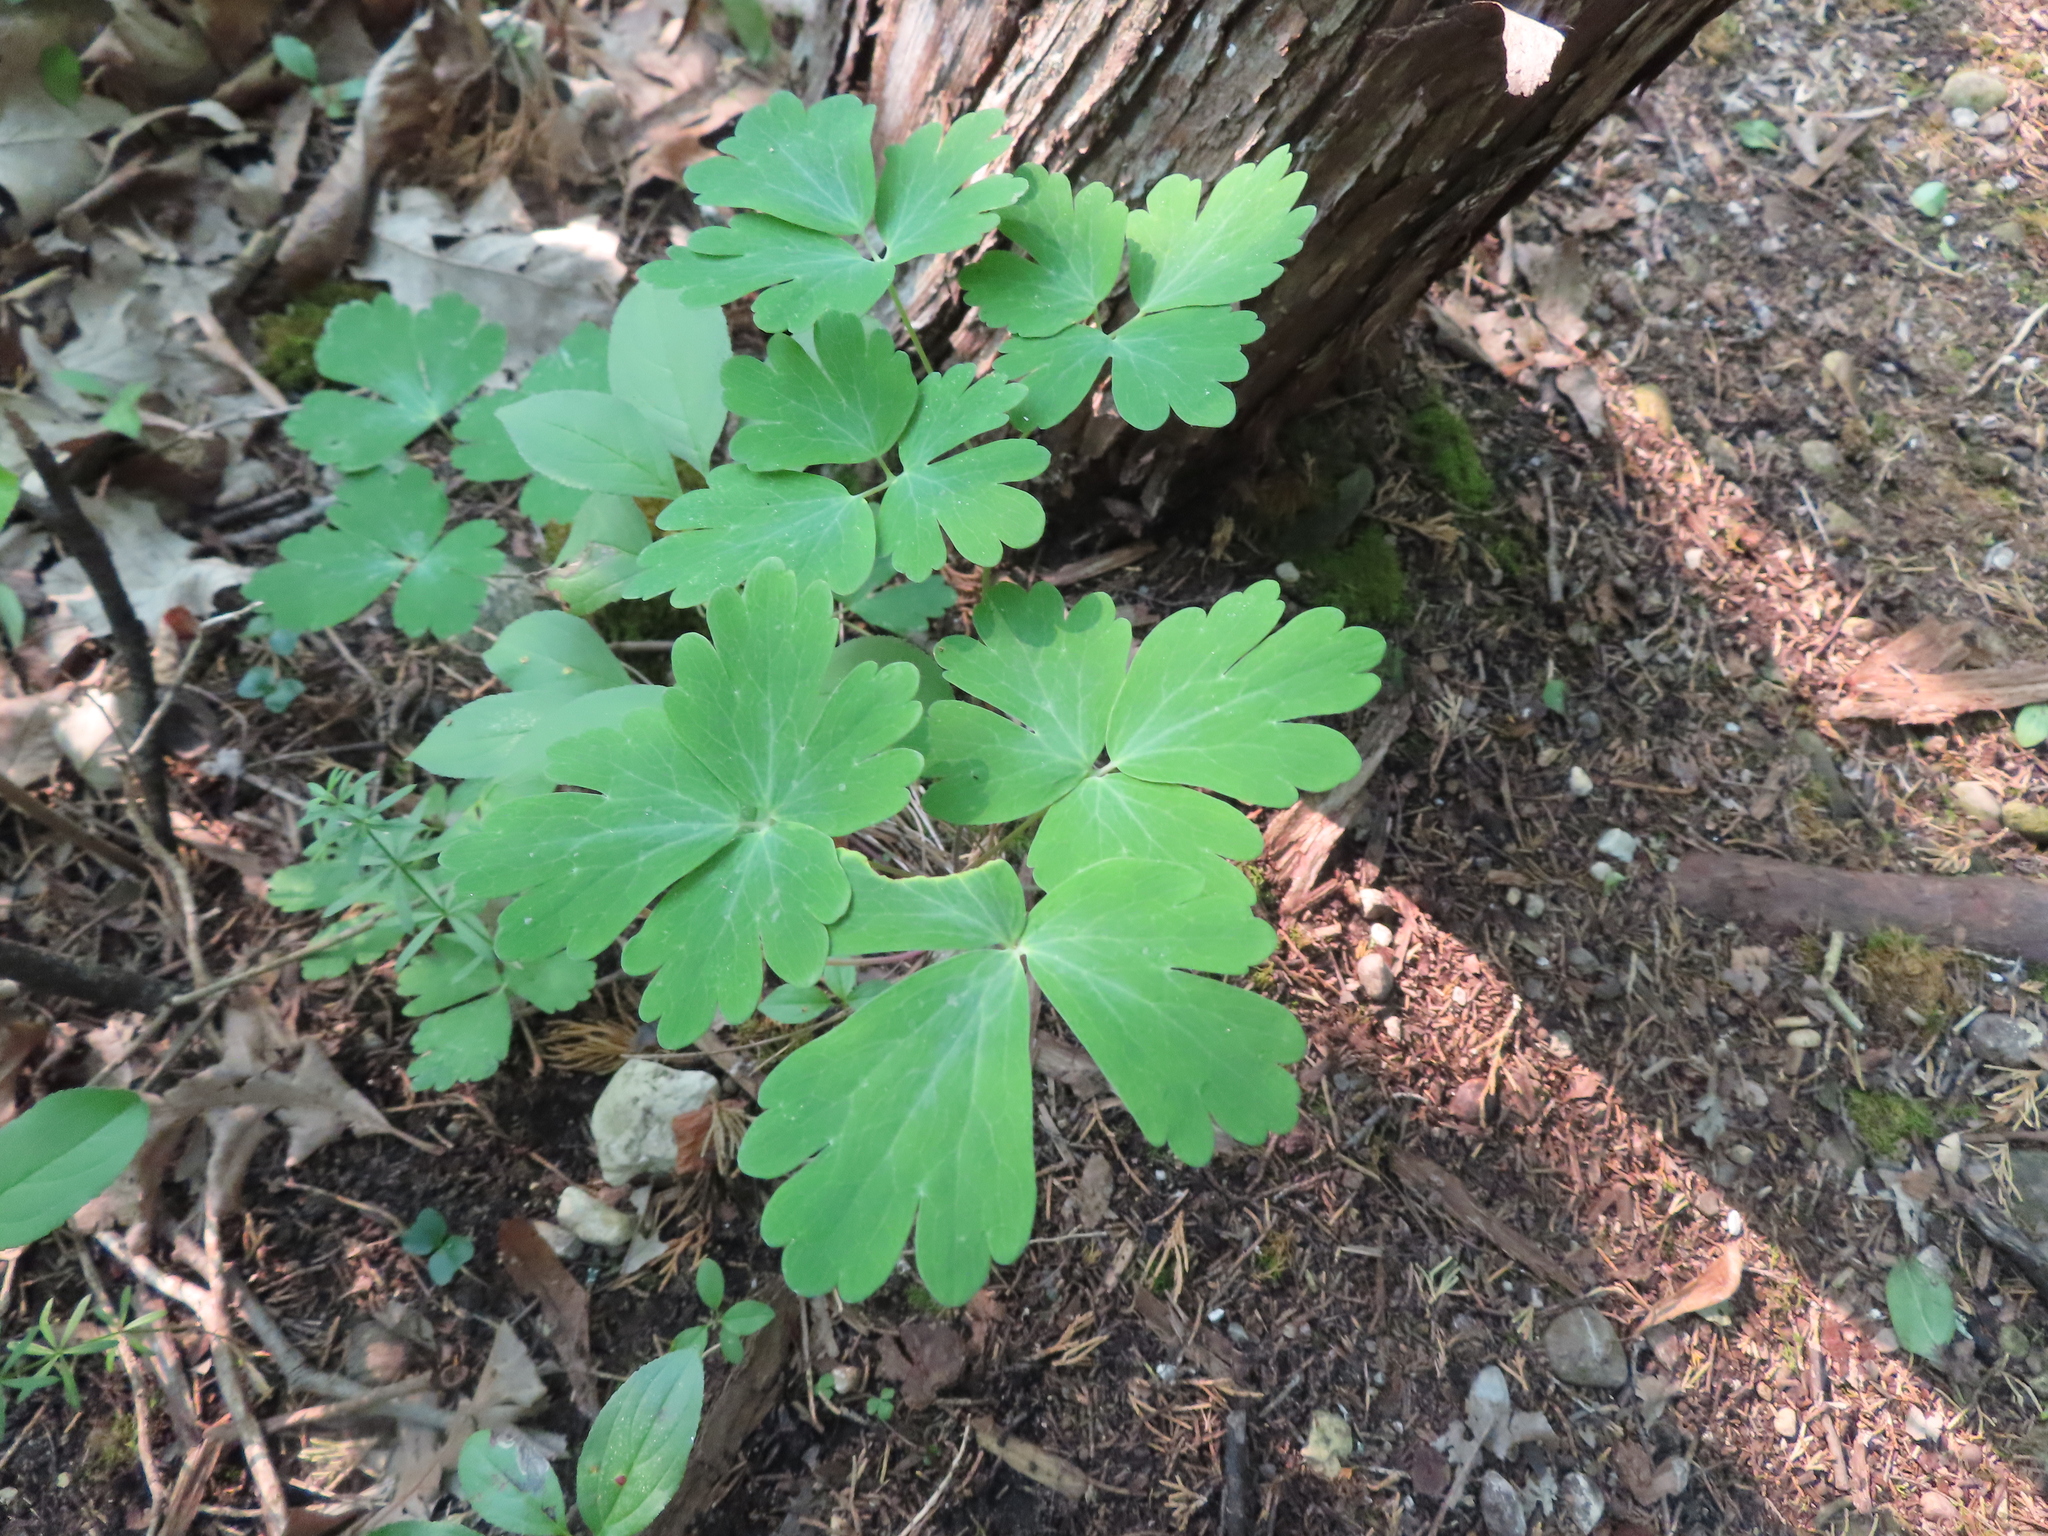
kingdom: Plantae
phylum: Tracheophyta
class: Magnoliopsida
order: Ranunculales
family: Ranunculaceae
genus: Aquilegia
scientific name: Aquilegia canadensis
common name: American columbine
